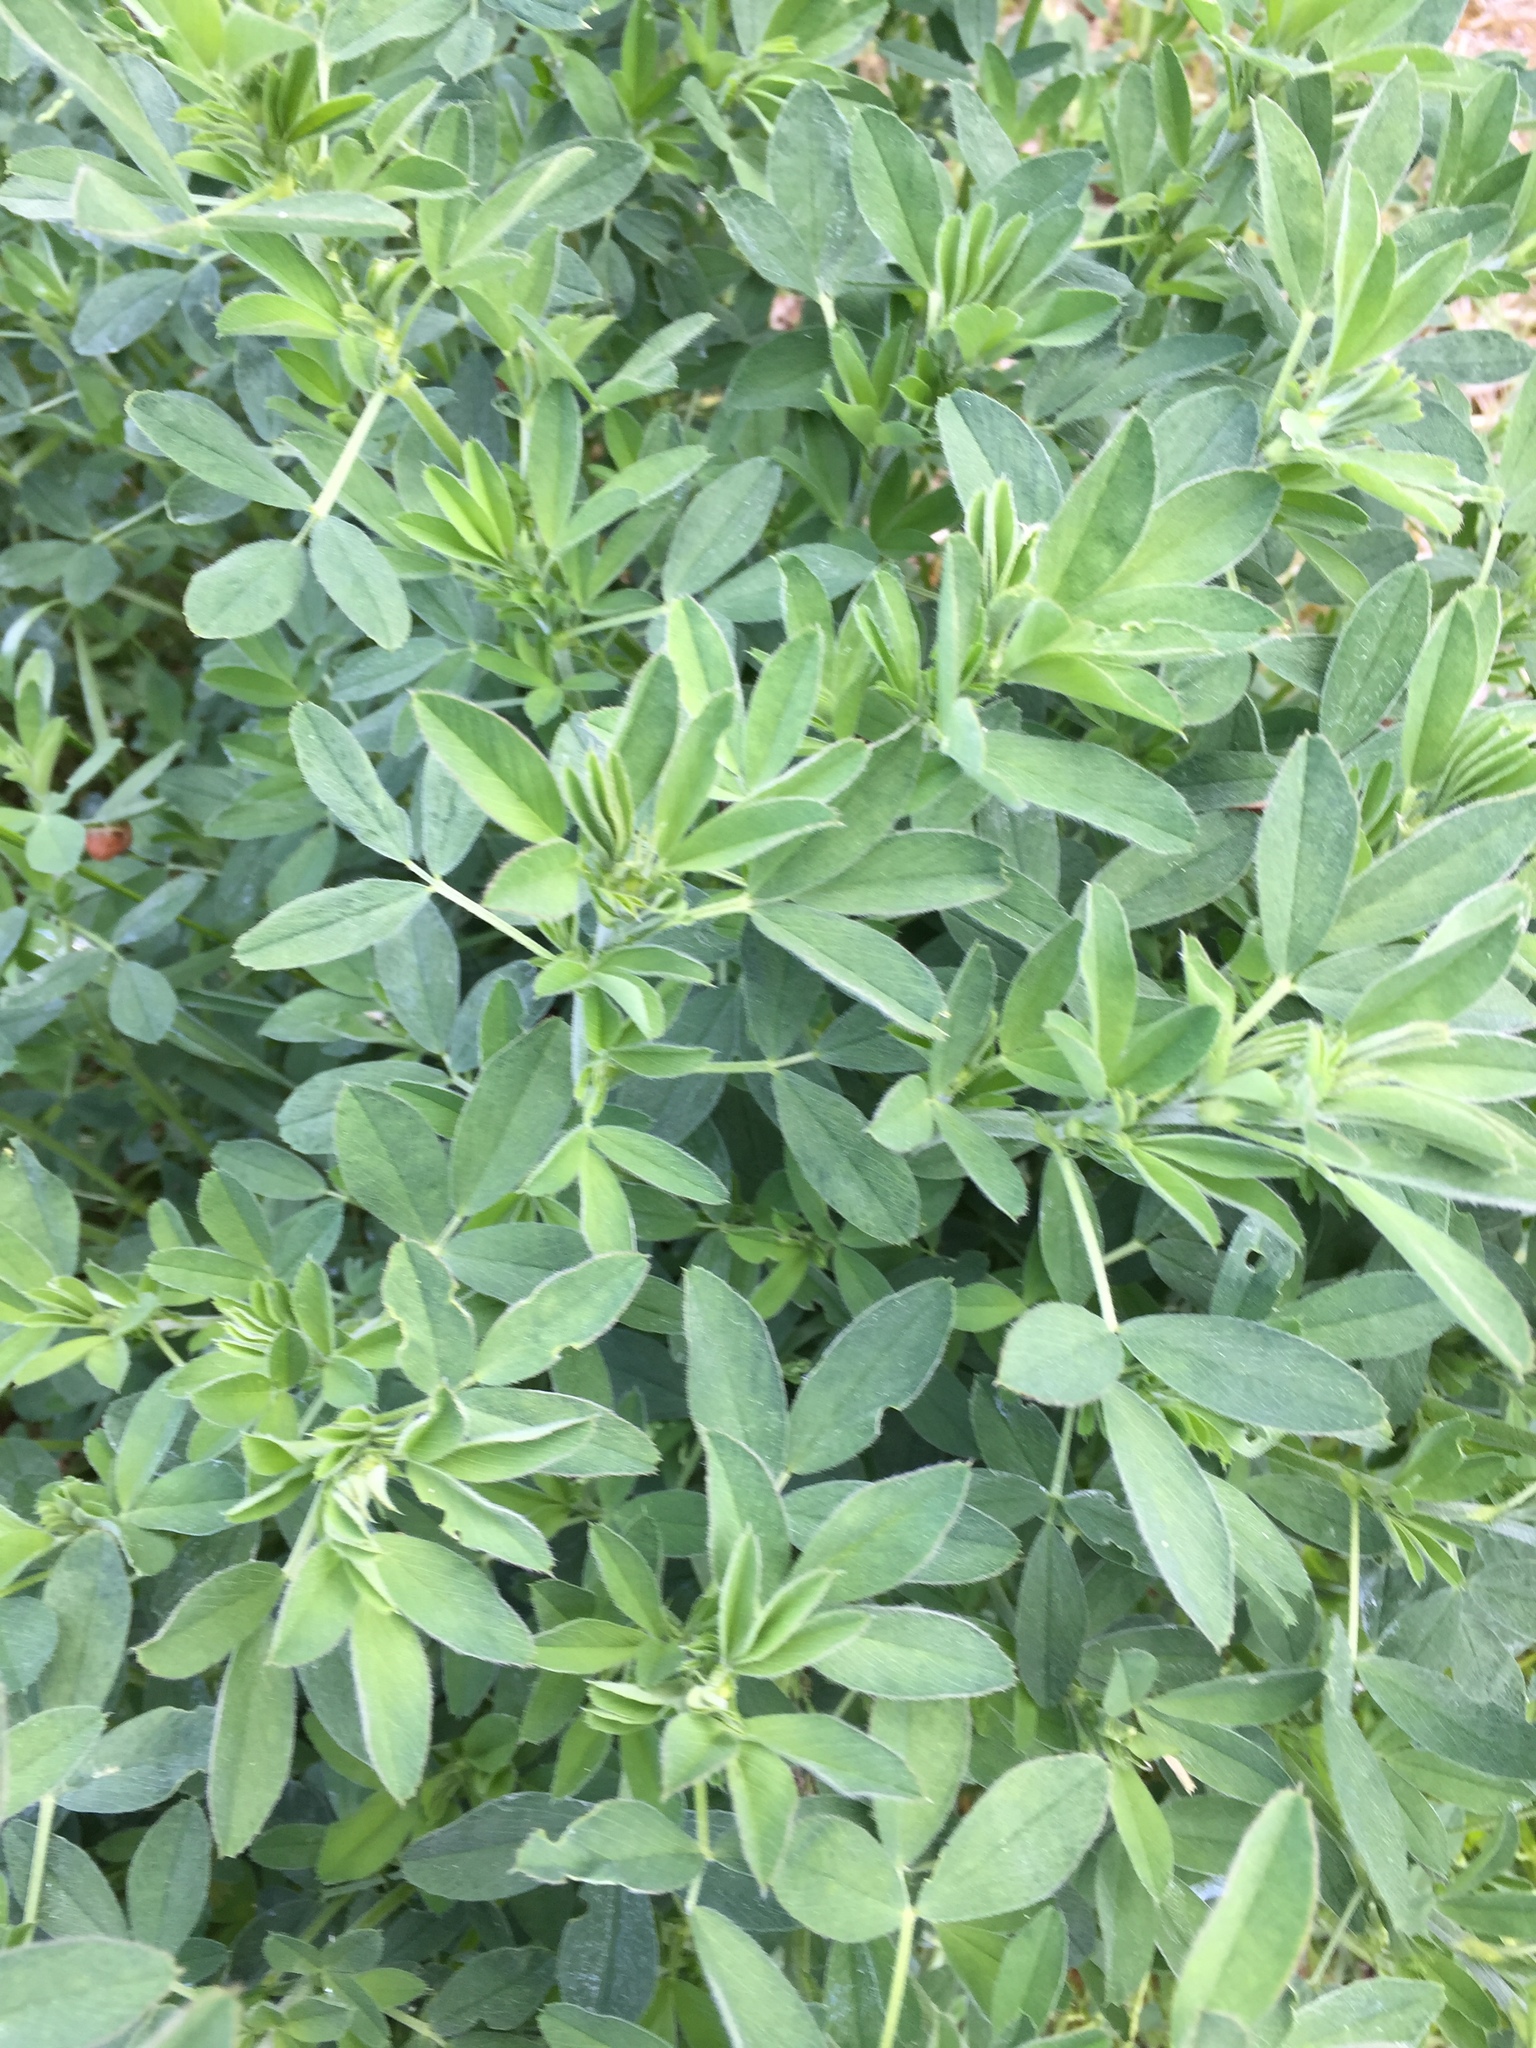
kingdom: Plantae
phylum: Tracheophyta
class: Magnoliopsida
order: Fabales
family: Fabaceae
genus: Medicago
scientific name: Medicago sativa
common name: Alfalfa
